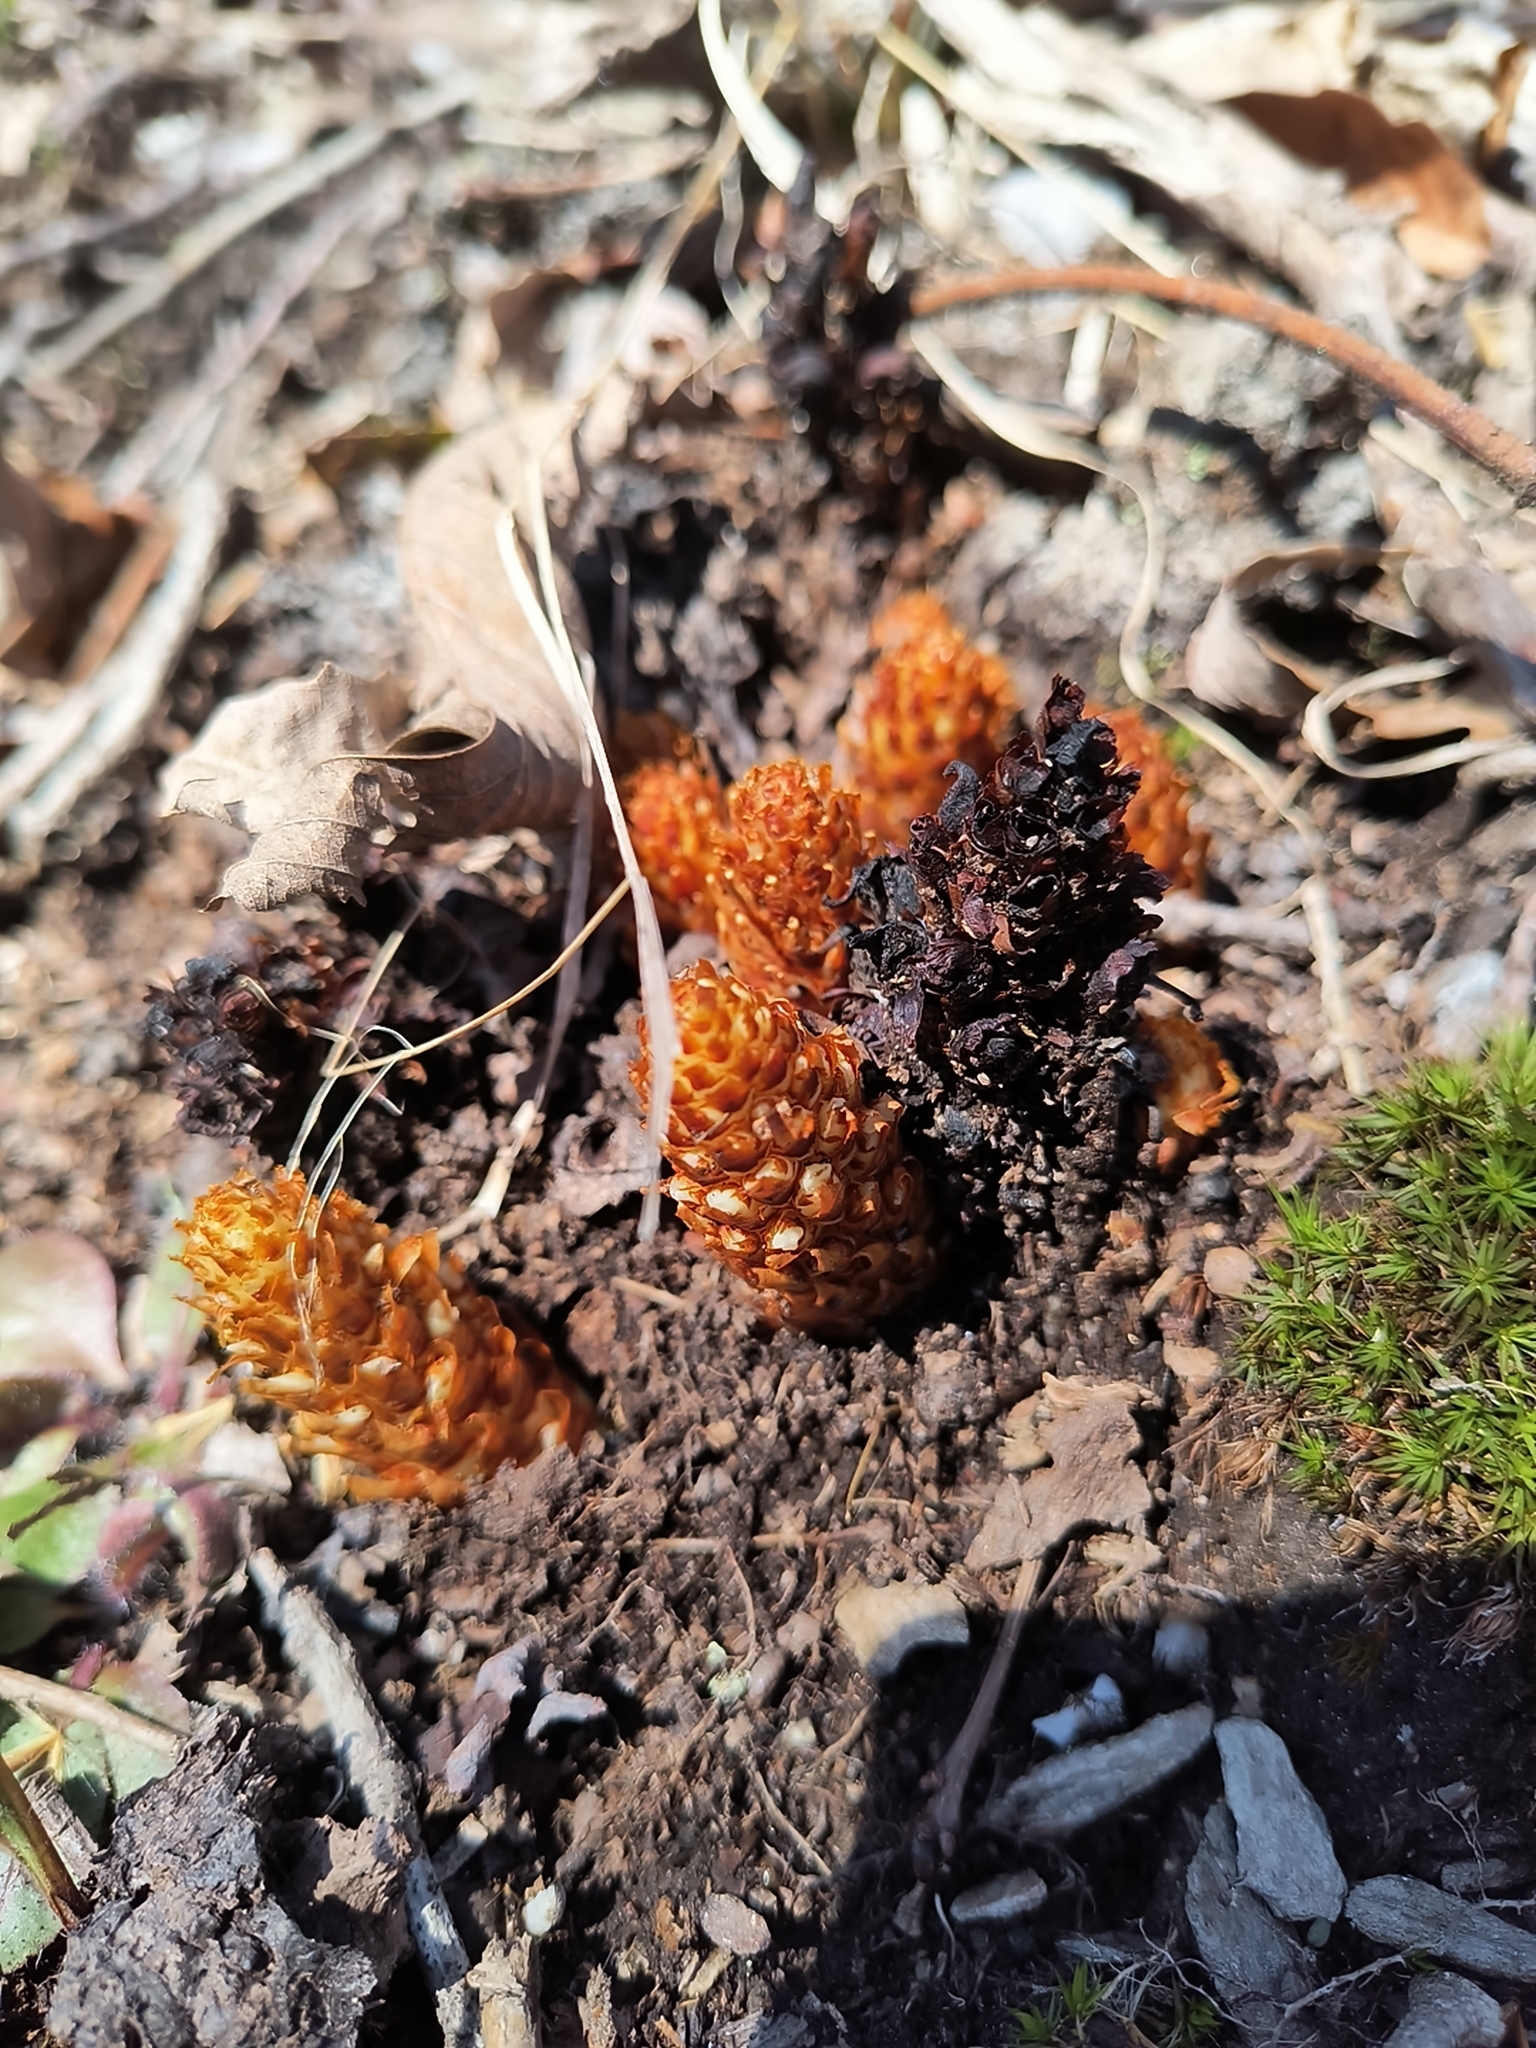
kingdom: Plantae
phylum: Tracheophyta
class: Magnoliopsida
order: Lamiales
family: Orobanchaceae
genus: Conopholis
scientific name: Conopholis americana
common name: American cancer-root
